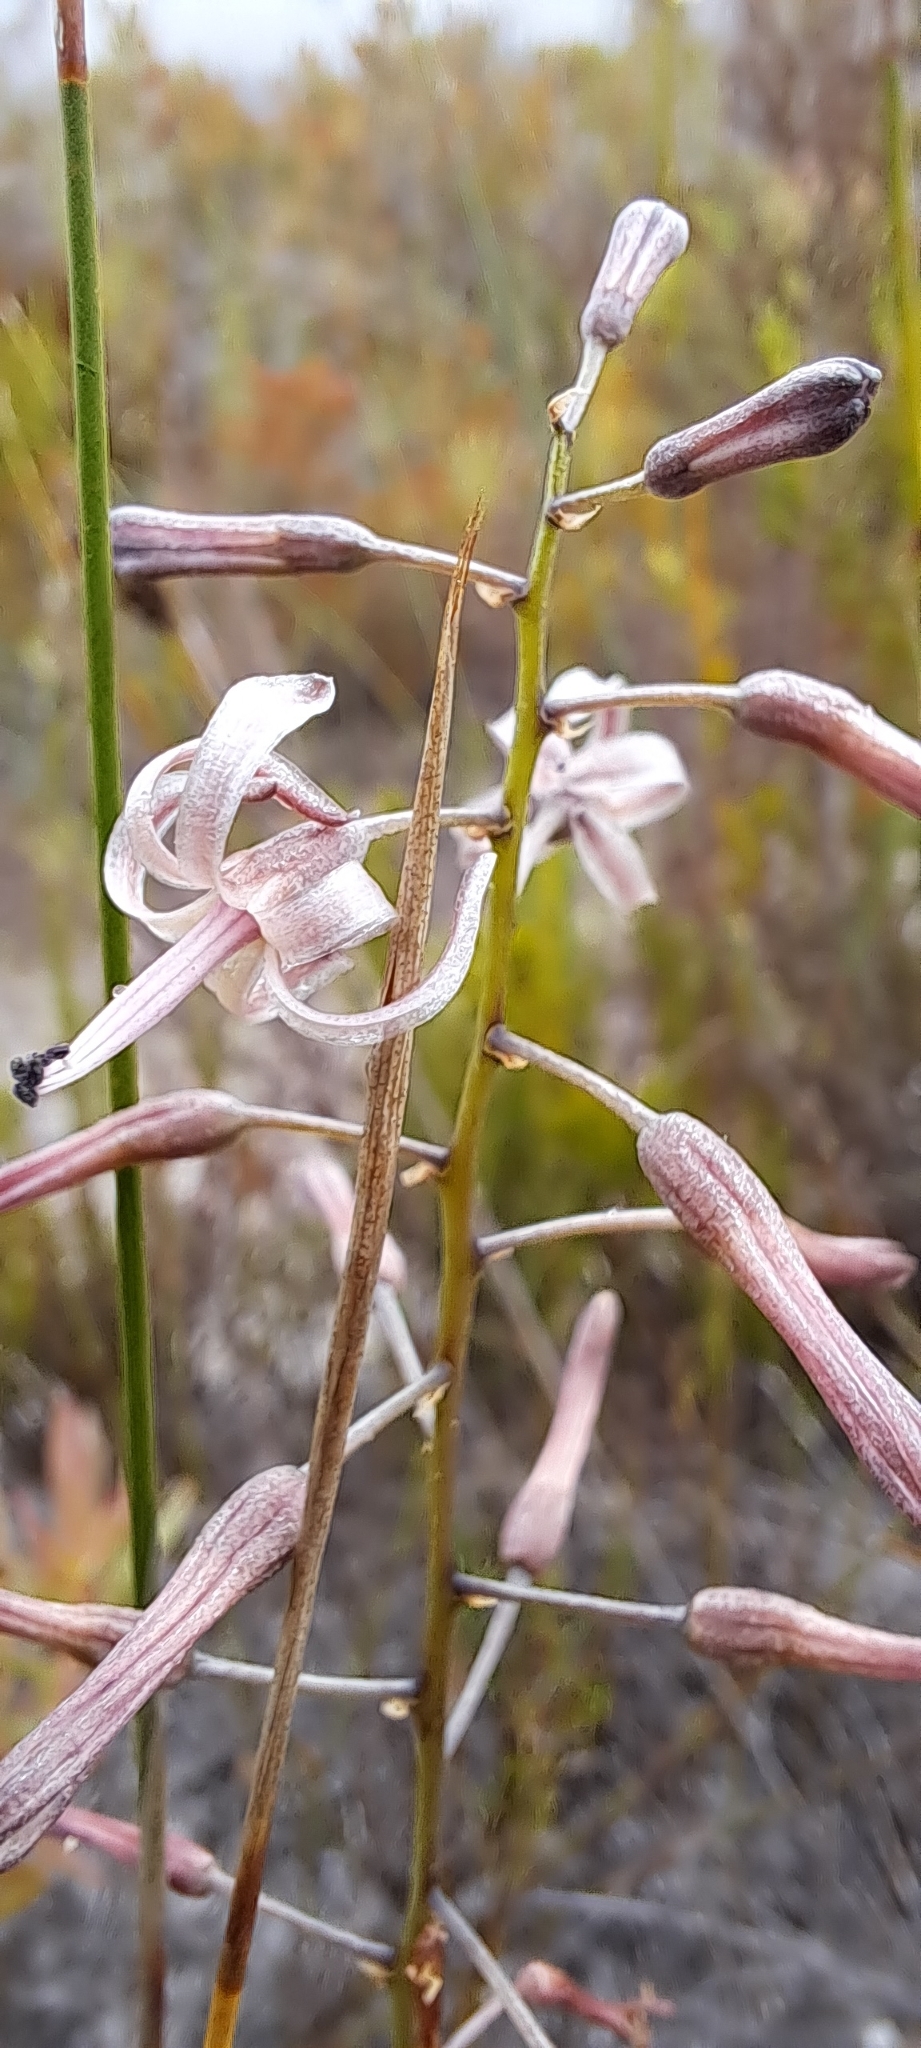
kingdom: Plantae
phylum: Tracheophyta
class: Liliopsida
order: Asparagales
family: Asparagaceae
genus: Drimia
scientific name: Drimia media
